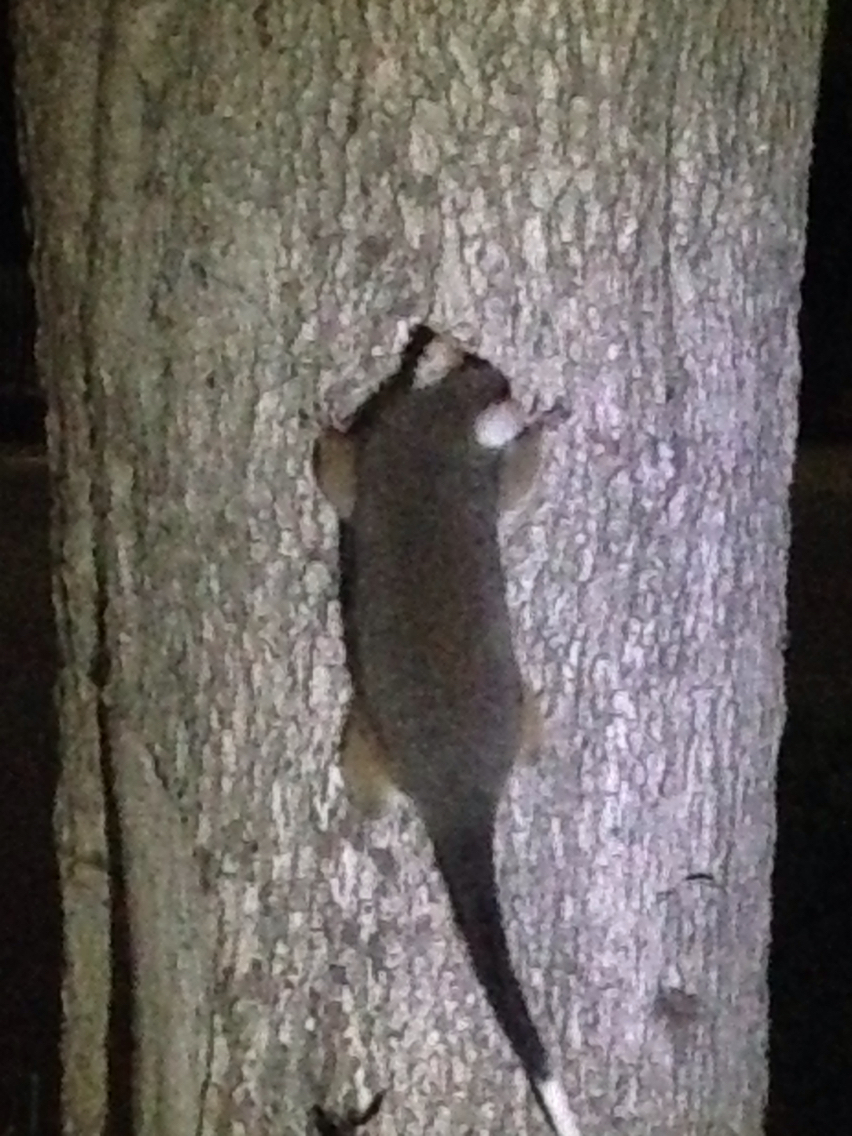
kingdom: Animalia
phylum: Chordata
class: Mammalia
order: Diprotodontia
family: Pseudocheiridae
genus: Pseudocheirus
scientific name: Pseudocheirus peregrinus
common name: Common ringtail possum
